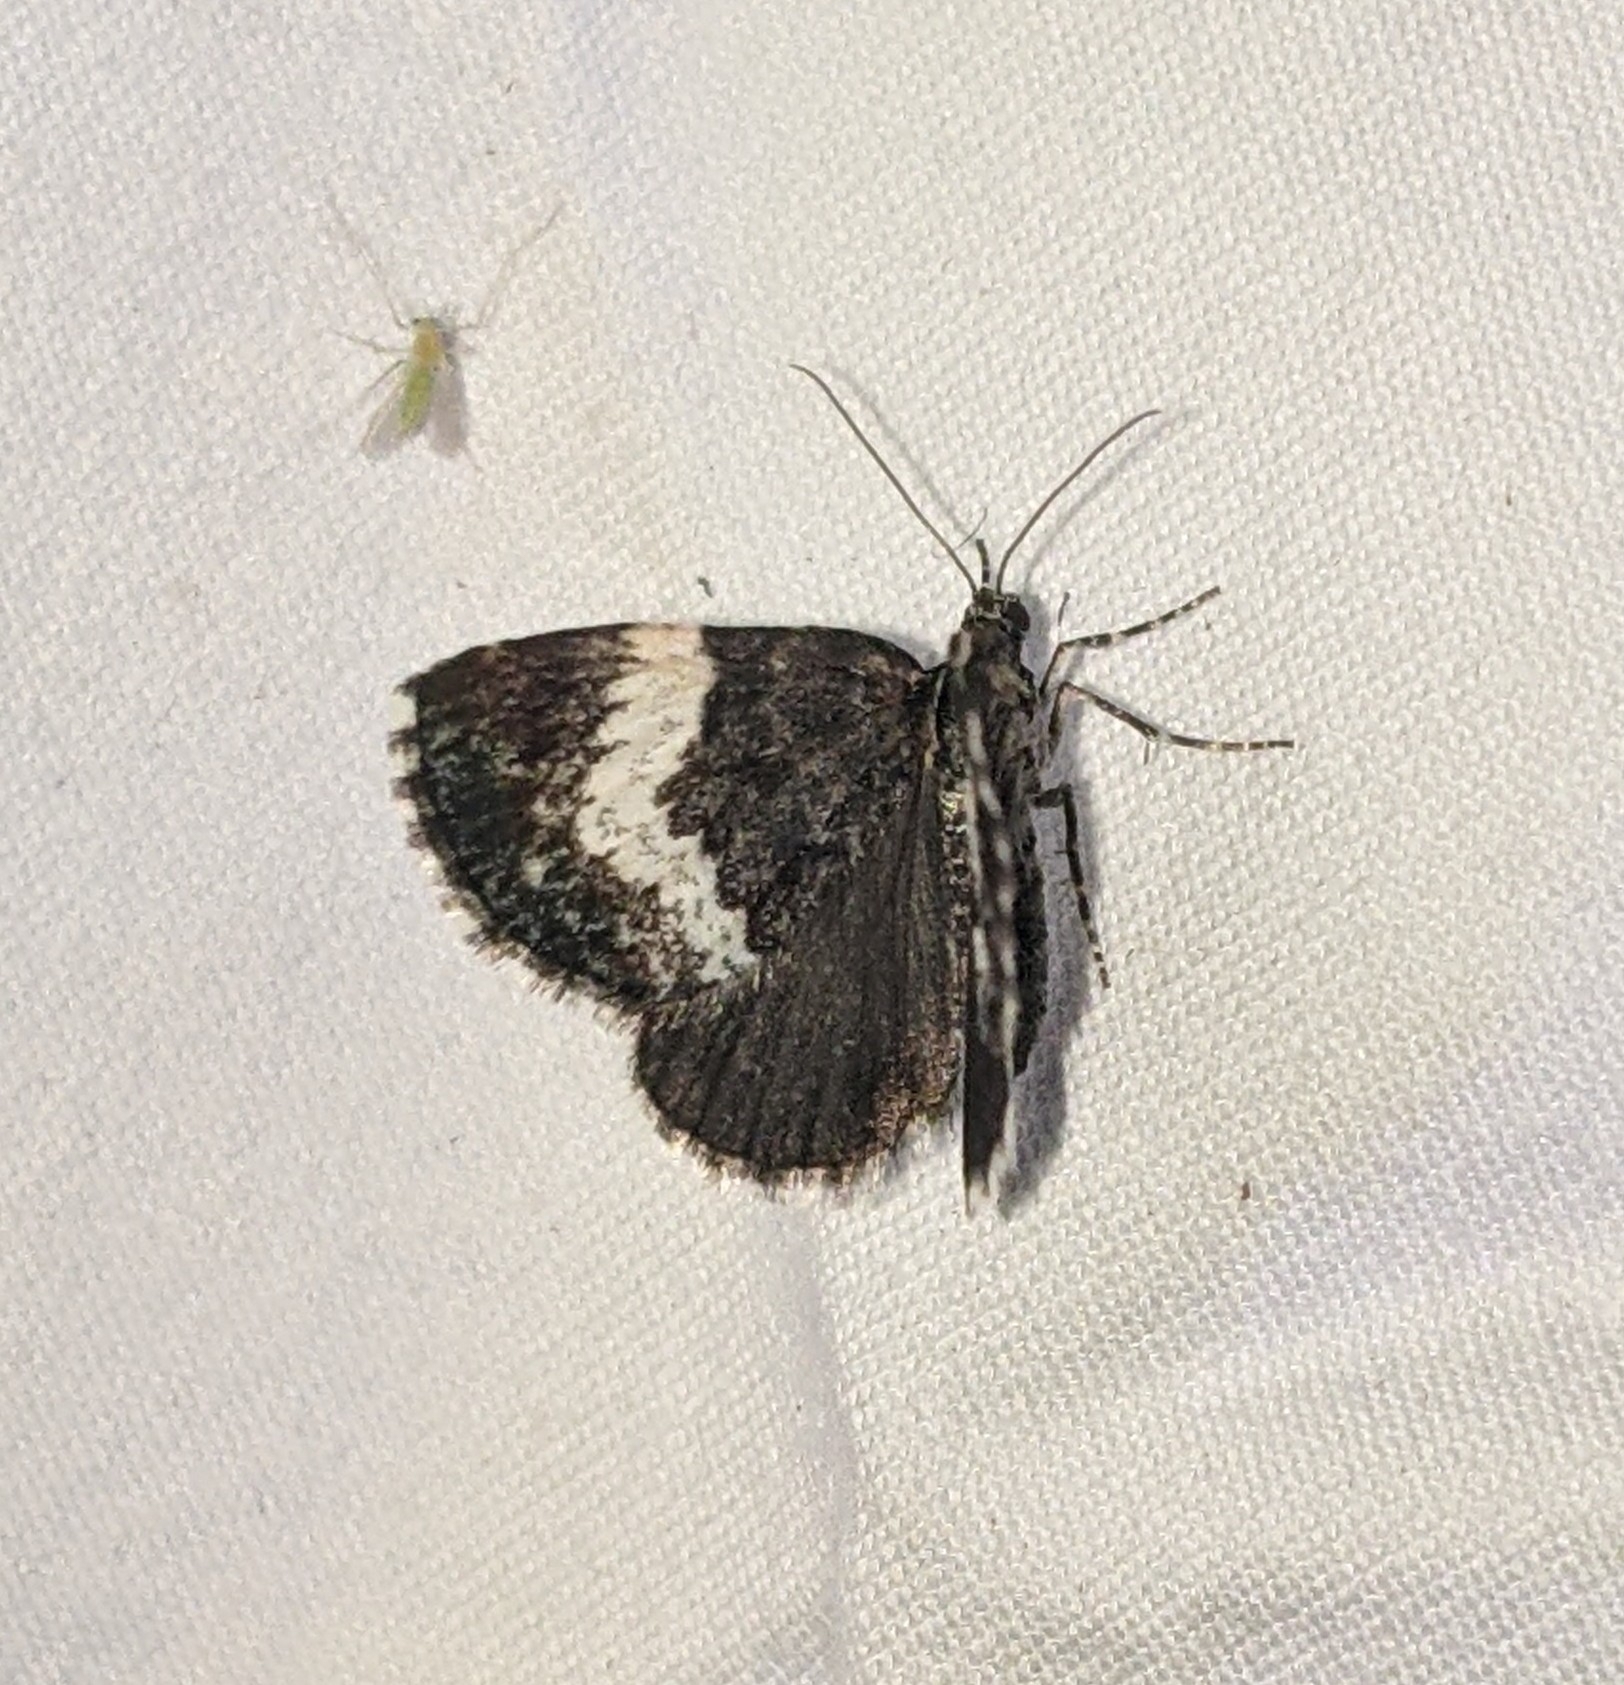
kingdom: Animalia
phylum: Arthropoda
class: Insecta
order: Lepidoptera
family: Geometridae
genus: Spargania
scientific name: Spargania luctuata
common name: White-banded carpet
